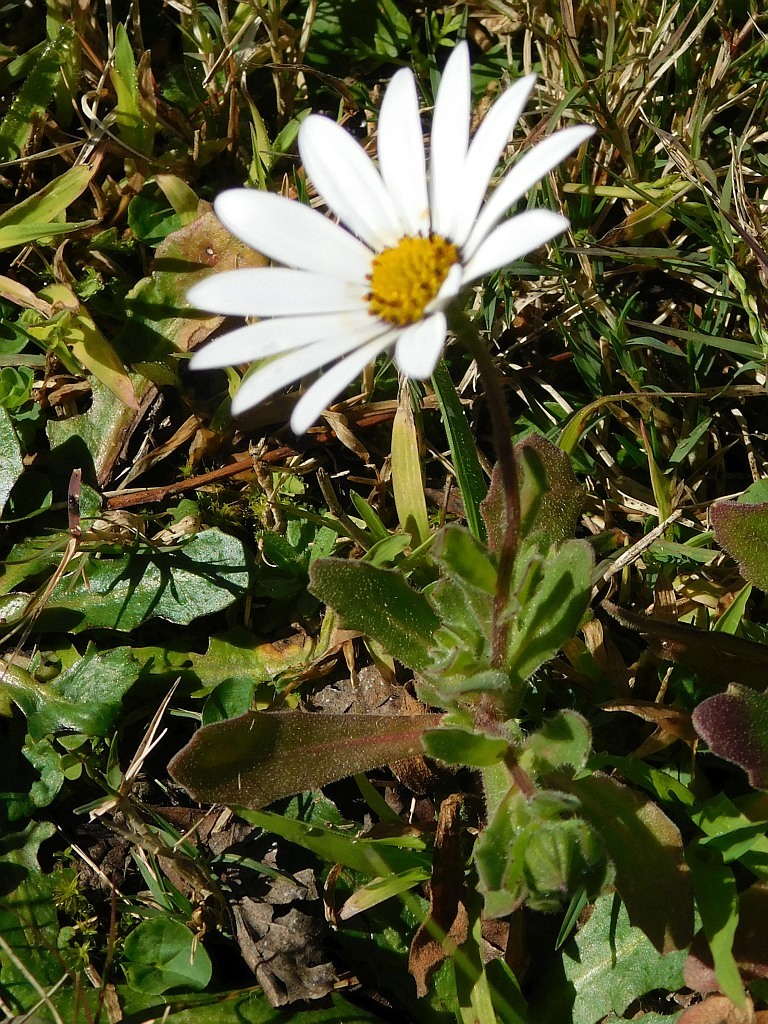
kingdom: Plantae
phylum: Tracheophyta
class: Magnoliopsida
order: Asterales
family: Asteraceae
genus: Dimorphotheca
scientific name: Dimorphotheca pluvialis
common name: Weather prophet
